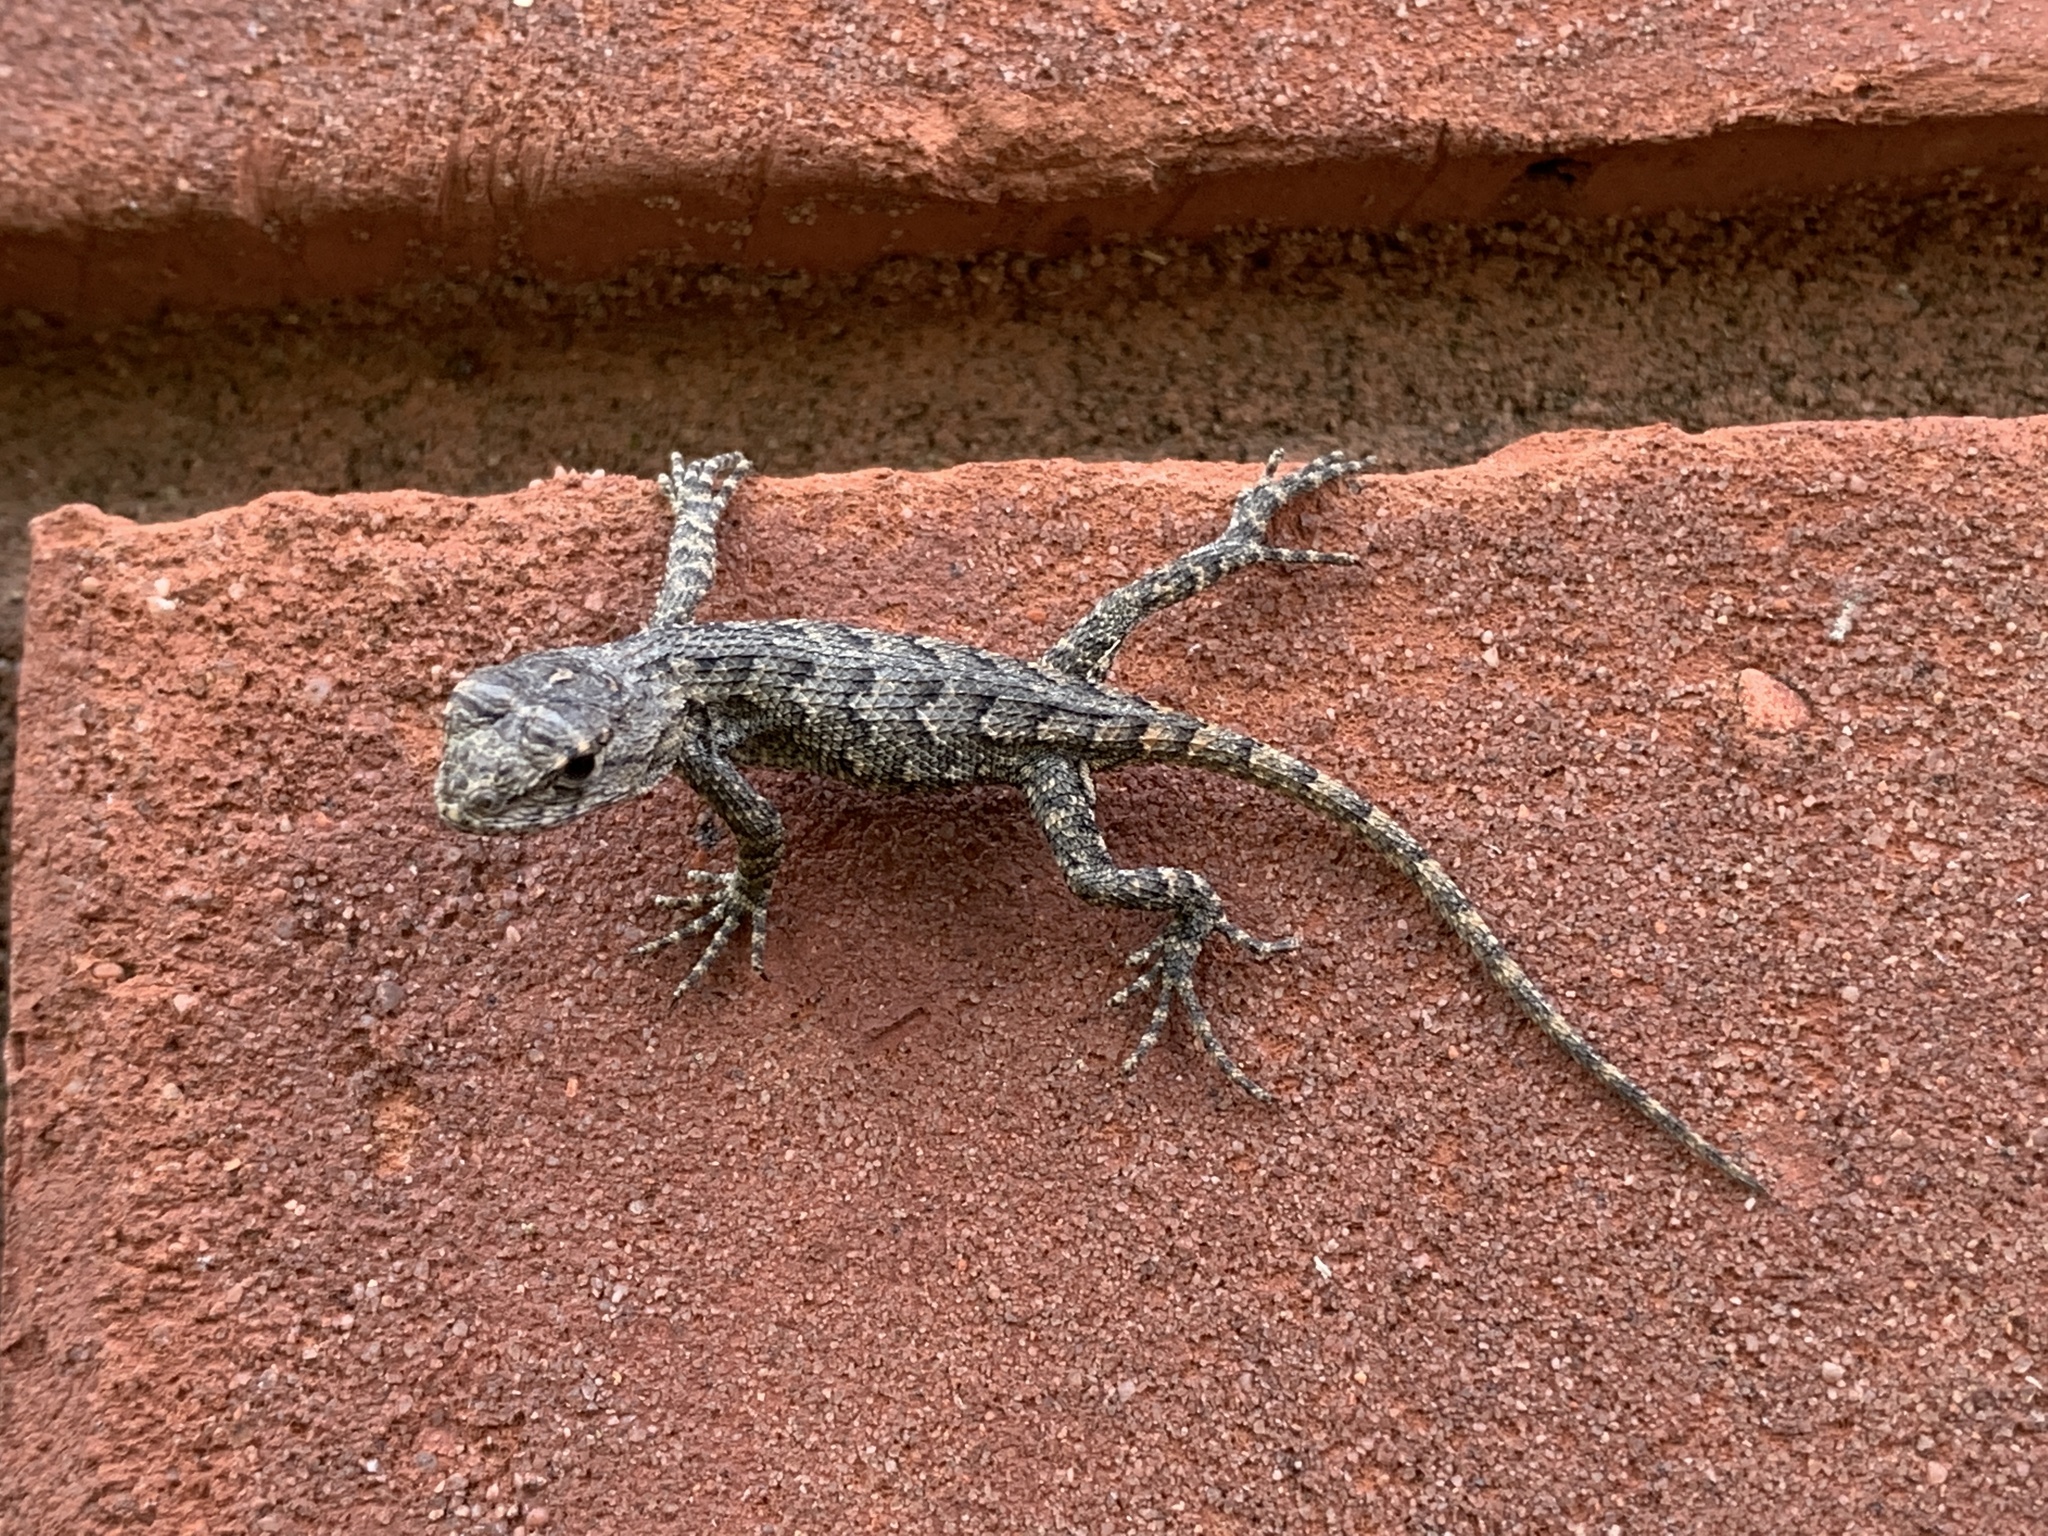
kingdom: Animalia
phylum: Chordata
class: Squamata
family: Phrynosomatidae
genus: Sceloporus
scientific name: Sceloporus undulatus
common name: Eastern fence lizard
